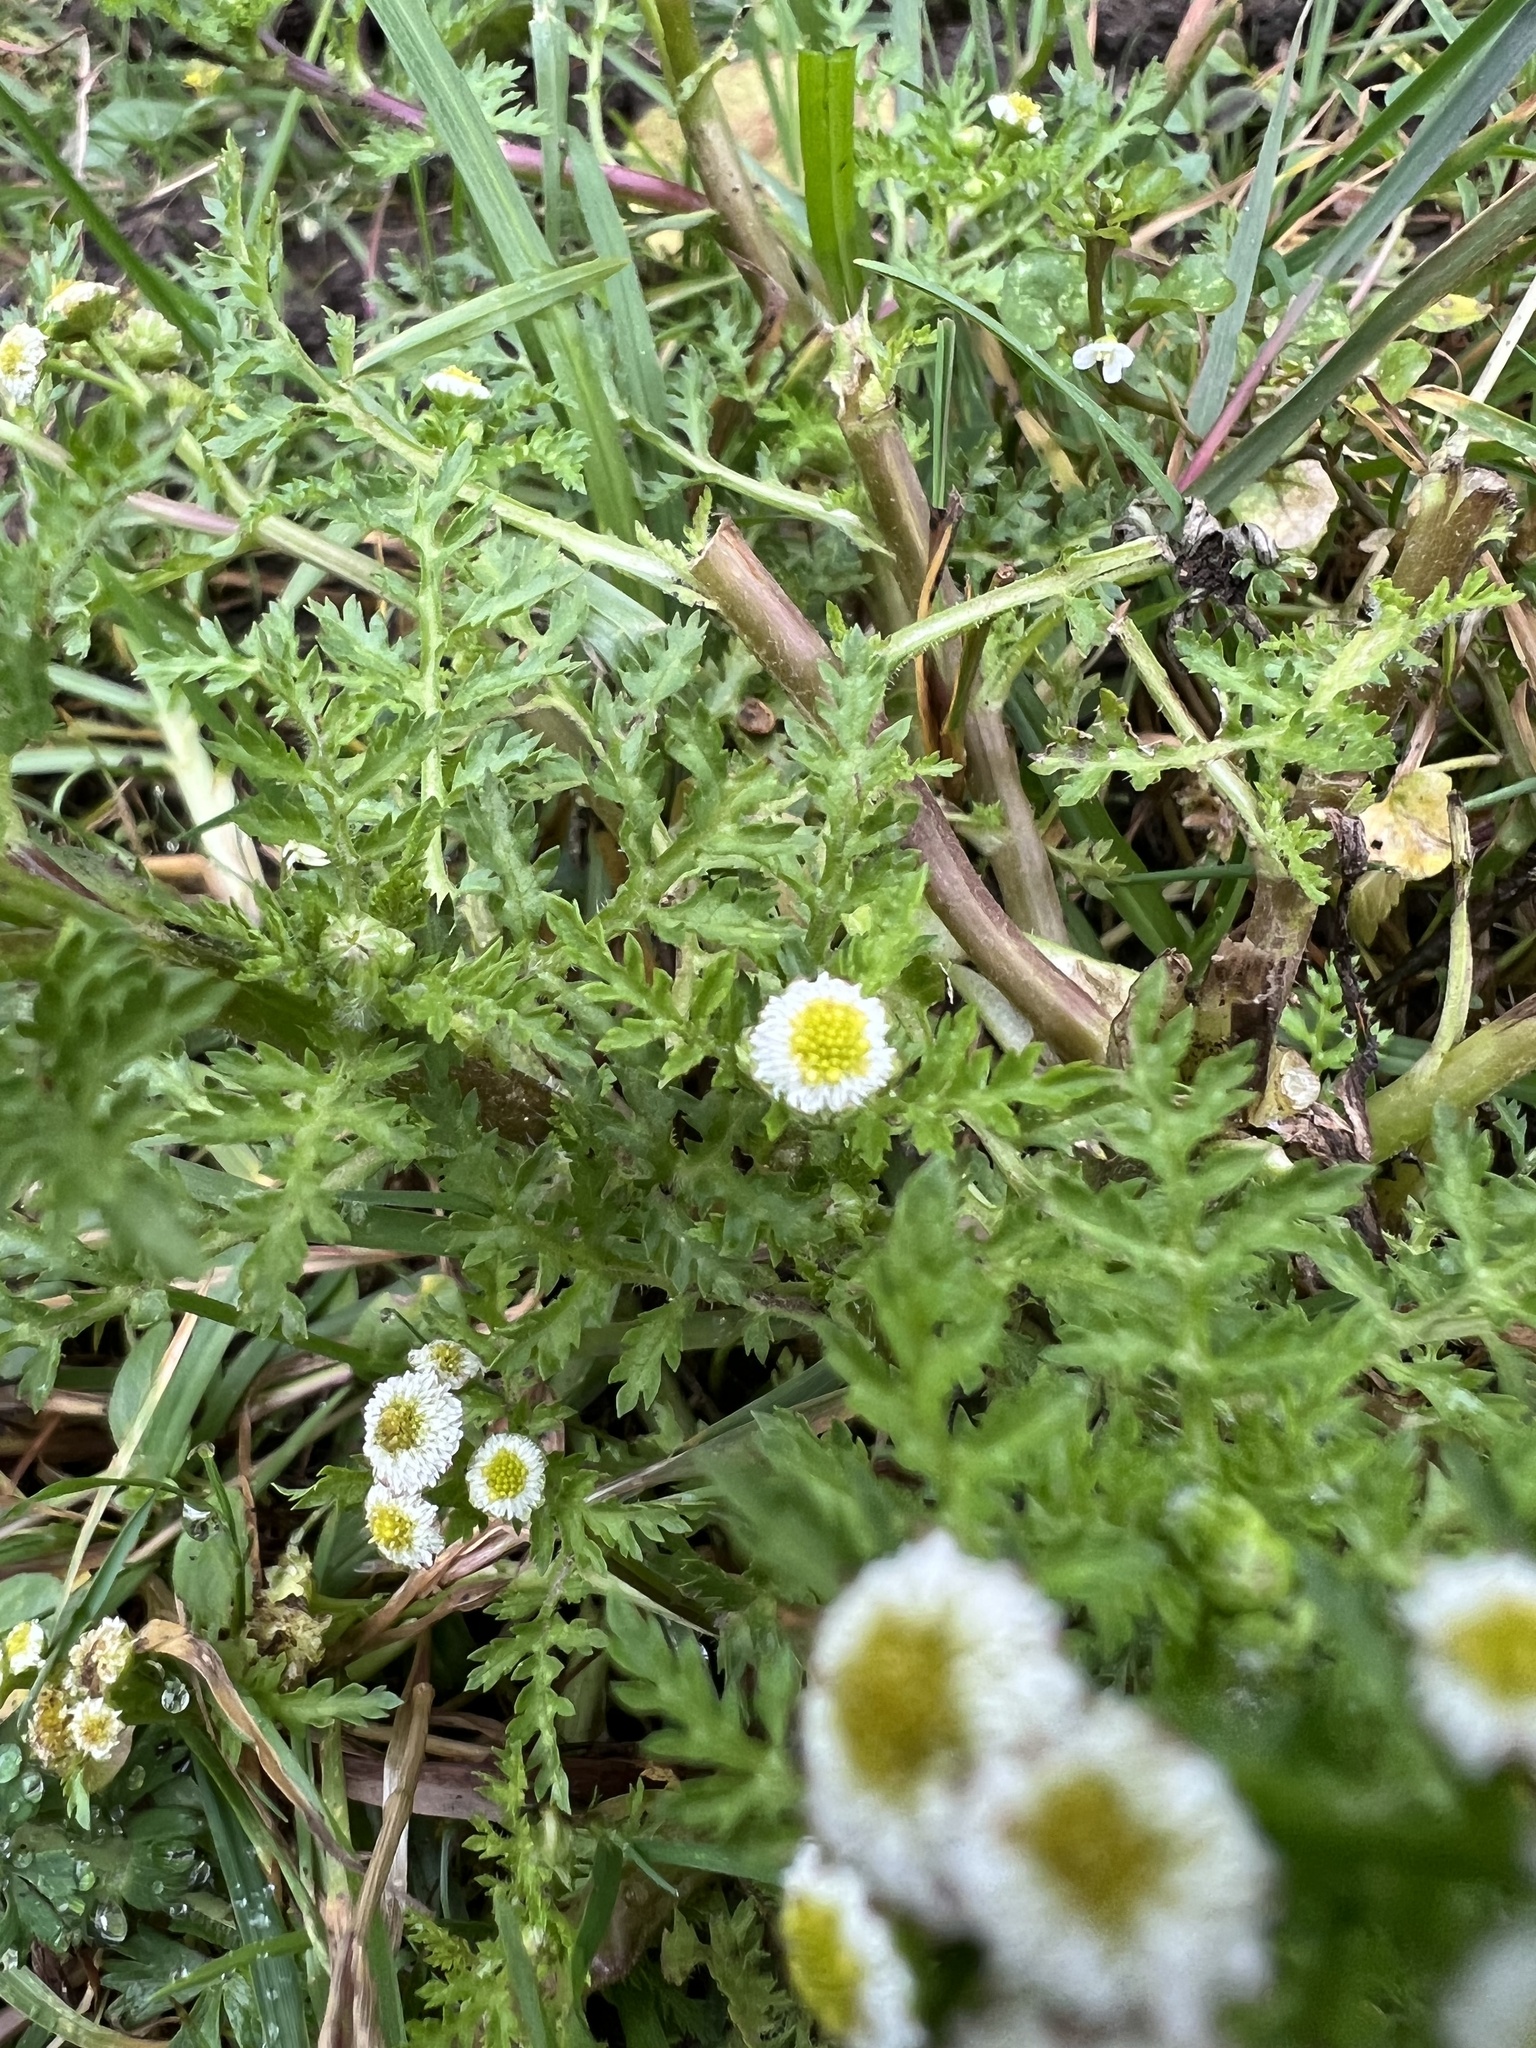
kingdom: Plantae
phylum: Tracheophyta
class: Magnoliopsida
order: Asterales
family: Asteraceae
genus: Plagiocheilus
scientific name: Plagiocheilus bogotensis
